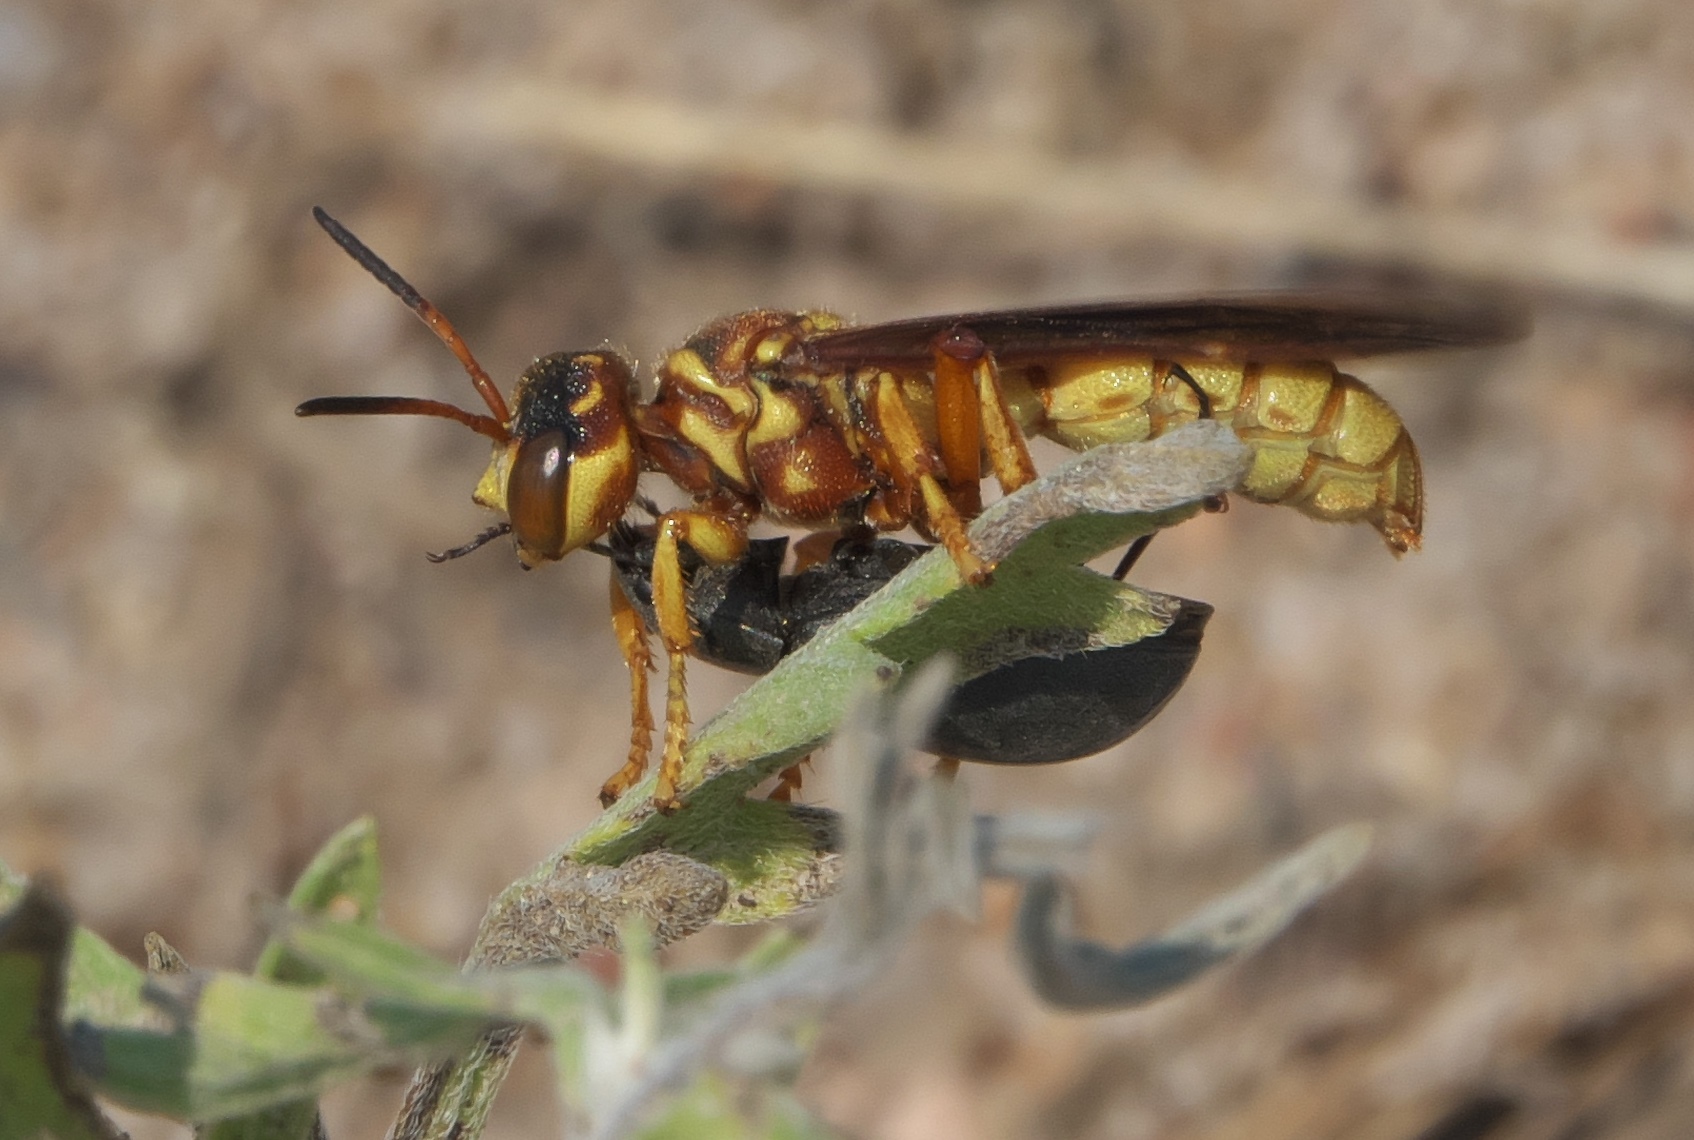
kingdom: Animalia
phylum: Arthropoda
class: Insecta
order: Hymenoptera
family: Crabronidae
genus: Cerceris
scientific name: Cerceris intricata
